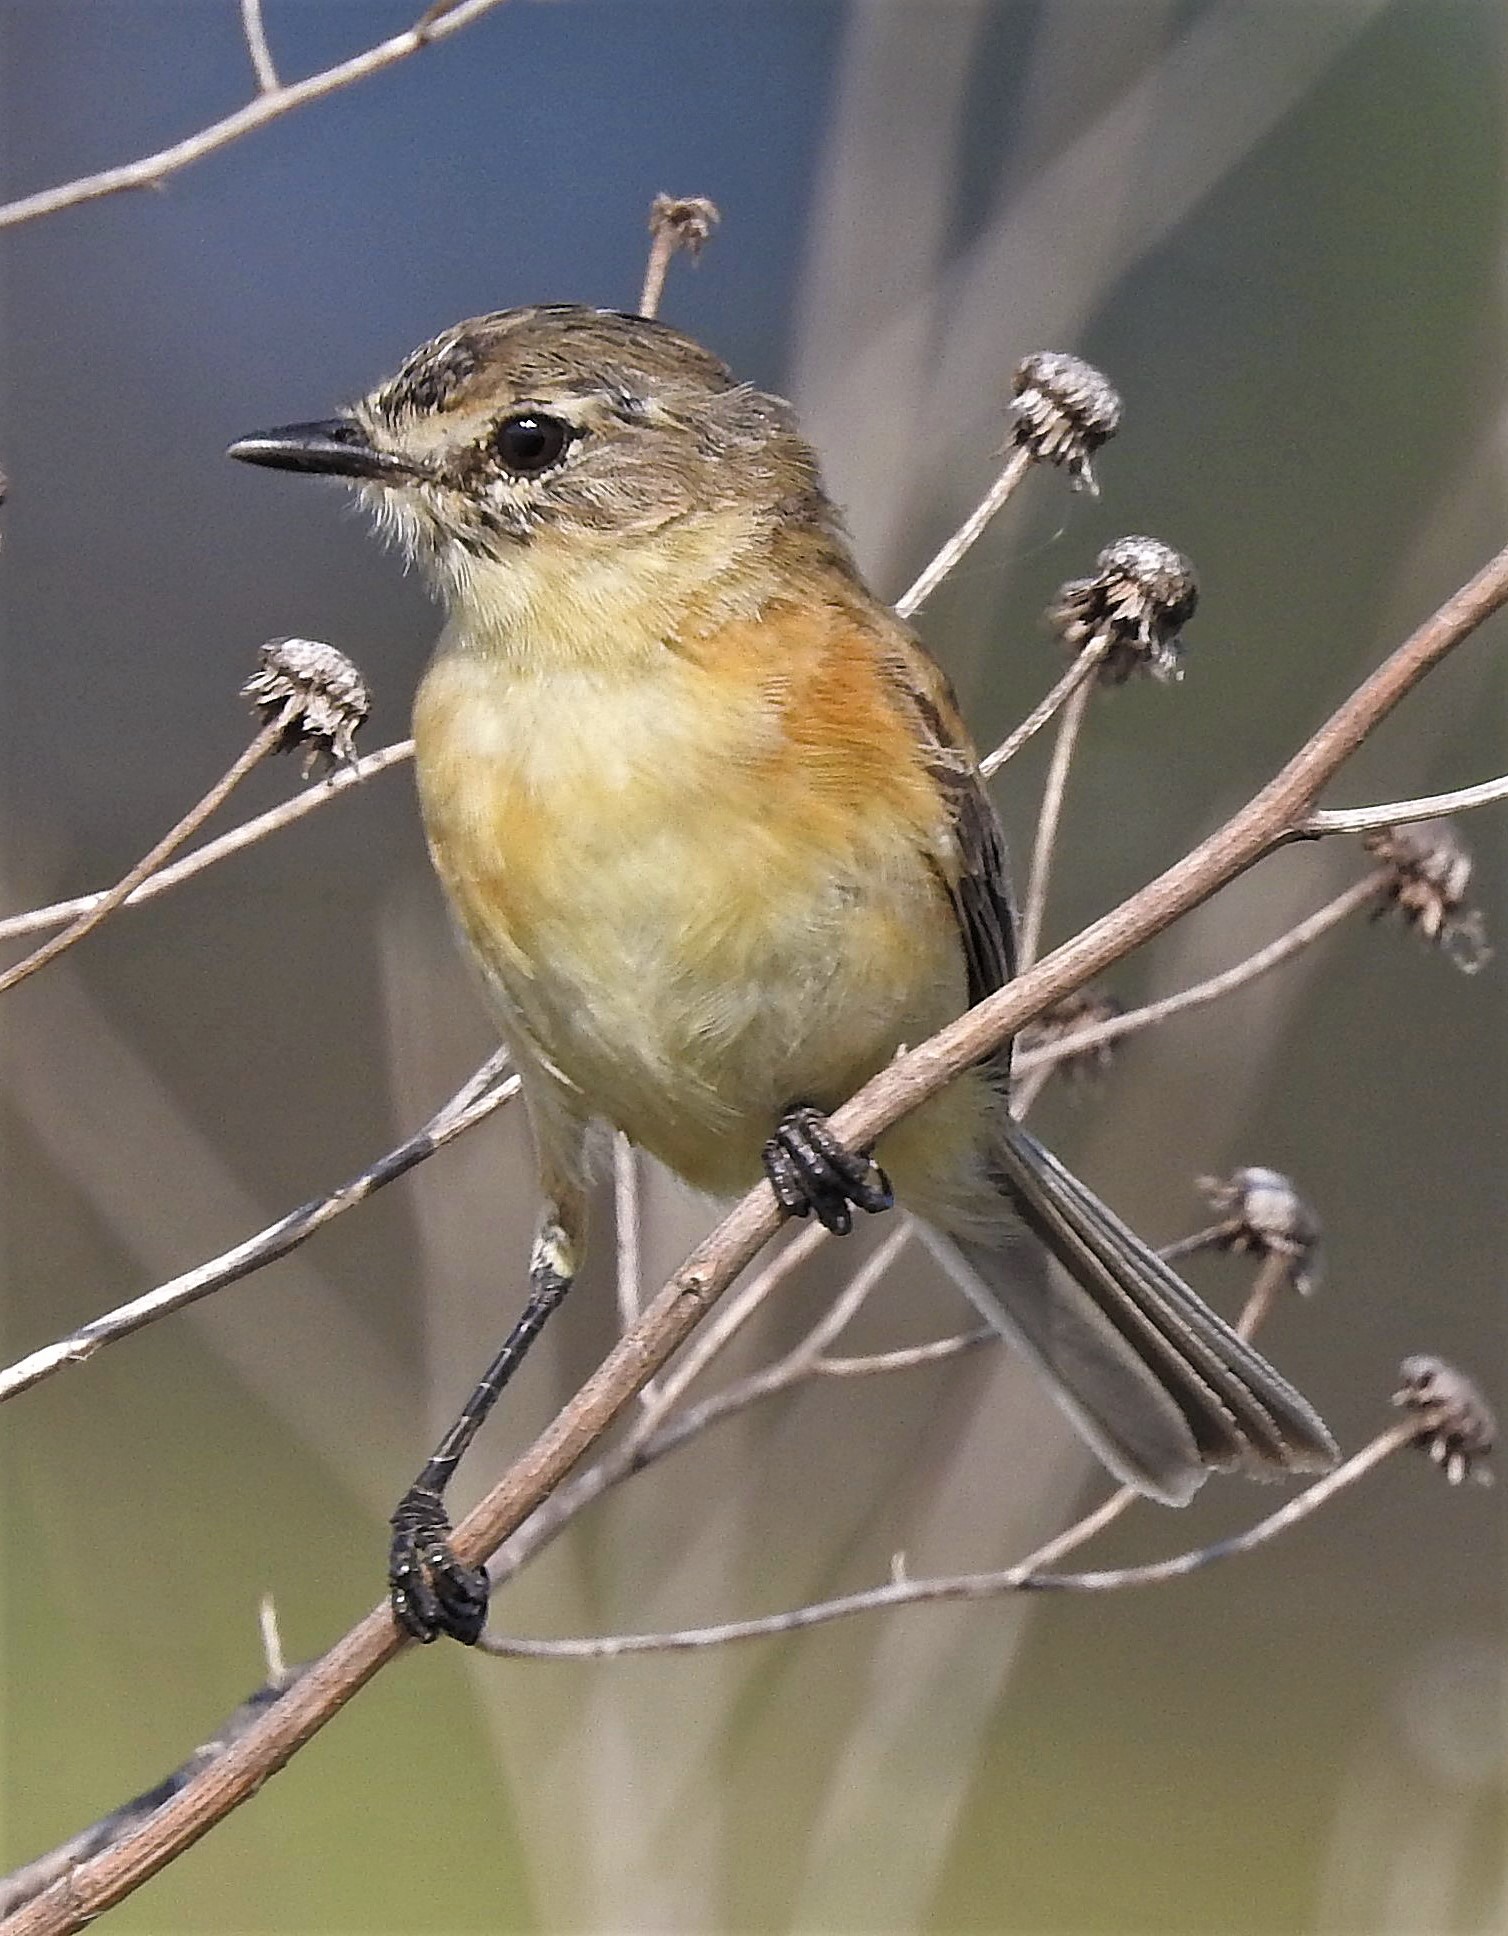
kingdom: Animalia
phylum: Chordata
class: Aves
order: Passeriformes
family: Tyrannidae
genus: Polystictus
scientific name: Polystictus pectoralis
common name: Bearded tachuri
